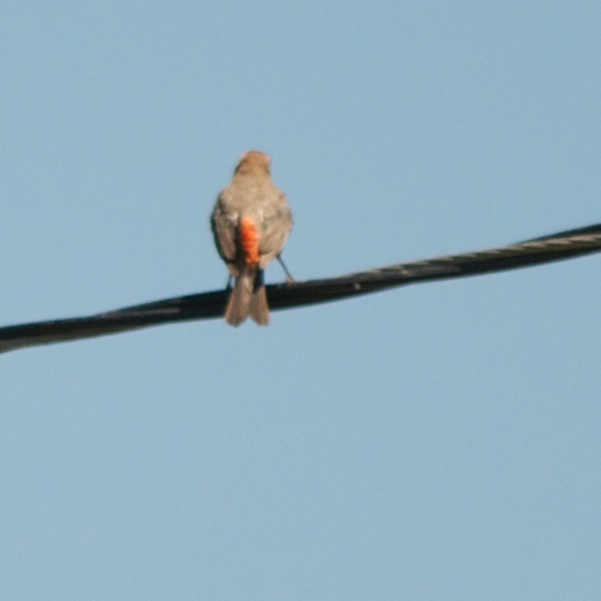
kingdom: Animalia
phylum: Chordata
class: Aves
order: Passeriformes
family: Fringillidae
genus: Haemorhous
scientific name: Haemorhous mexicanus
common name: House finch
